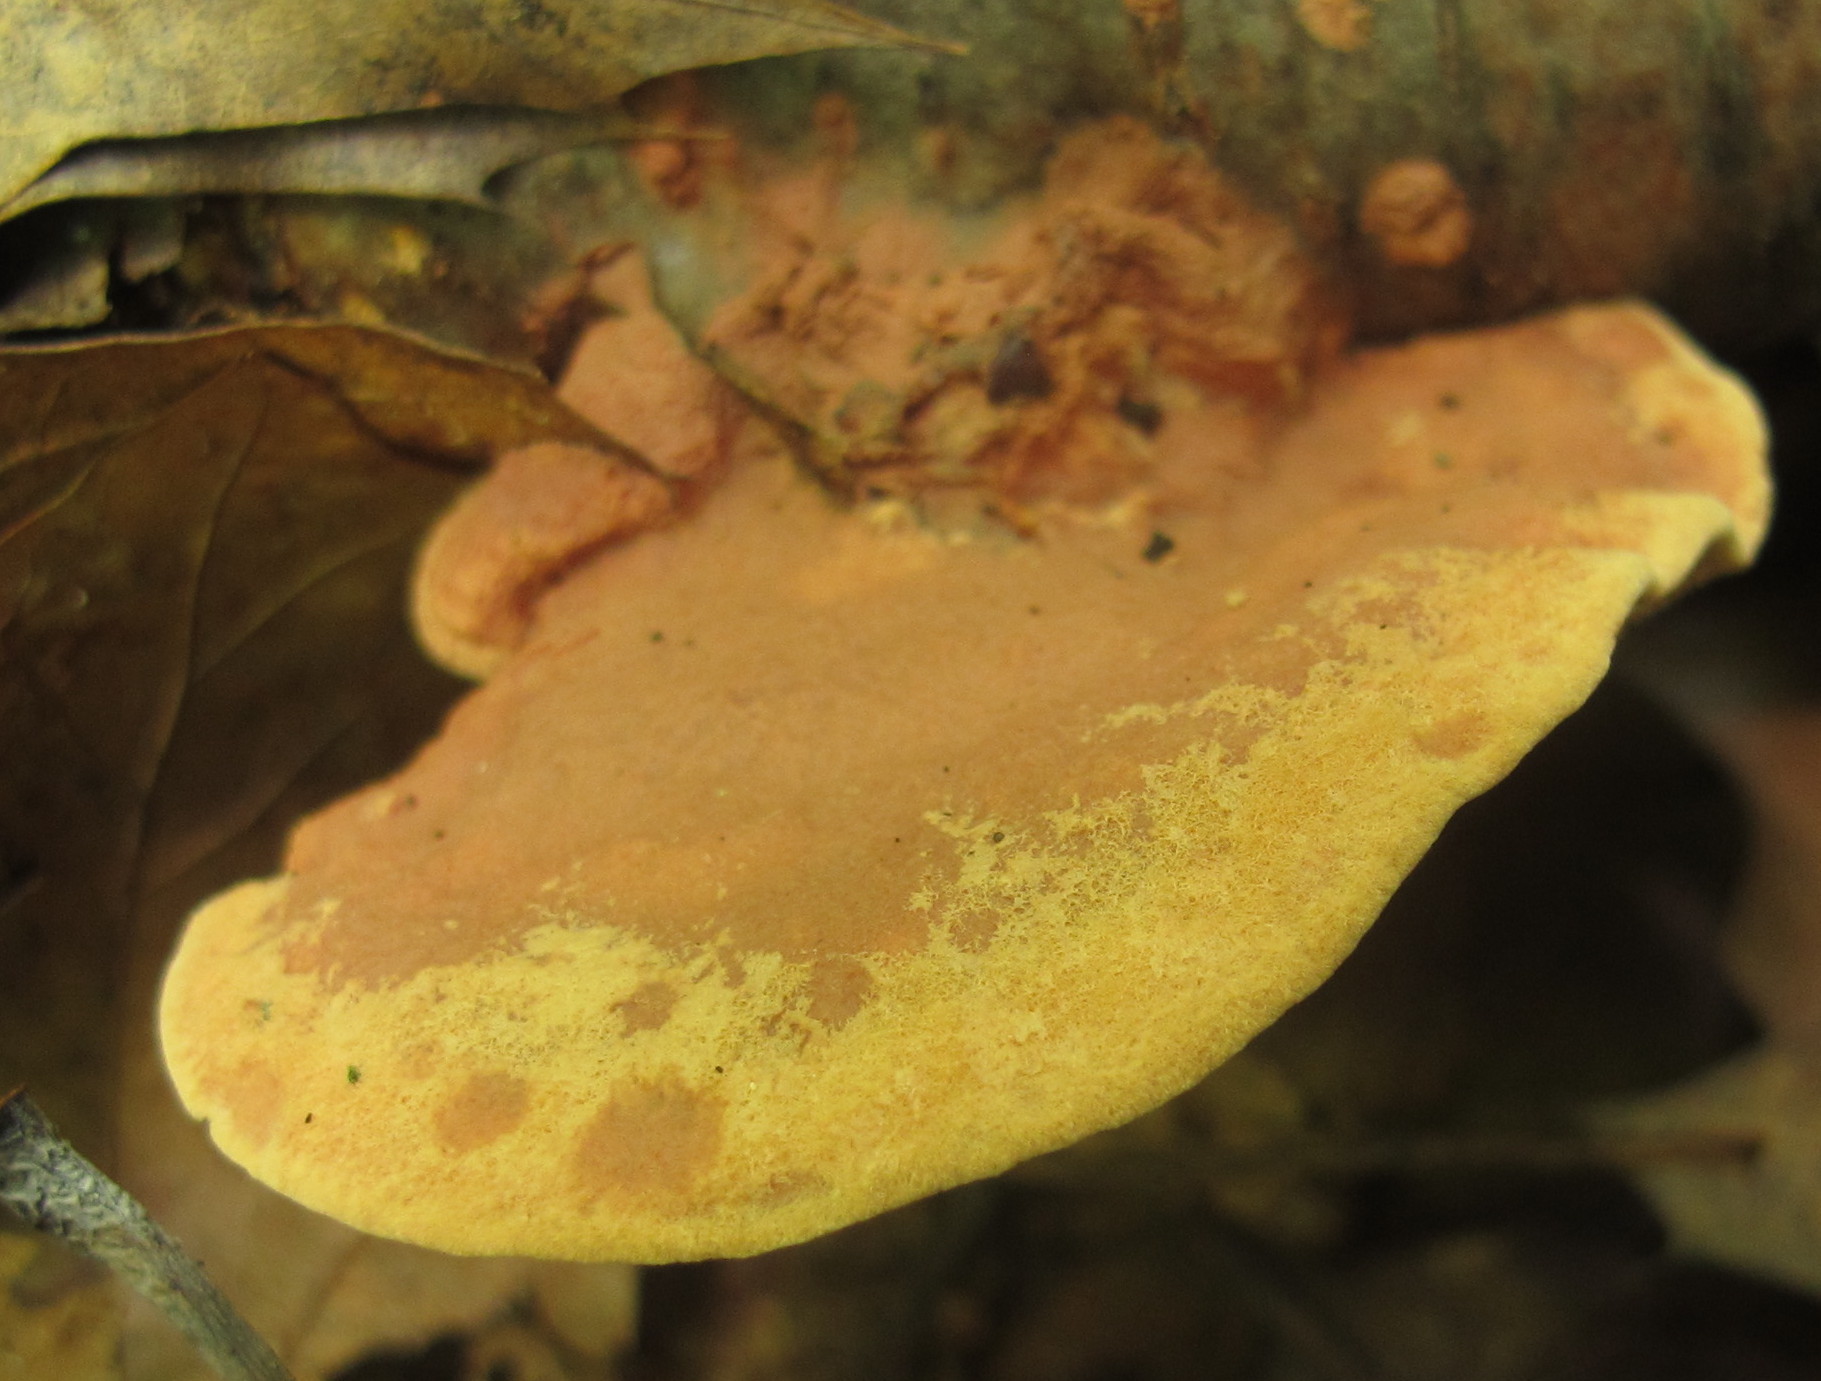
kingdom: Fungi
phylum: Basidiomycota
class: Agaricomycetes
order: Polyporales
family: Phanerochaetaceae
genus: Hapalopilus
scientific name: Hapalopilus rutilans
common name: Tender nesting polypore
